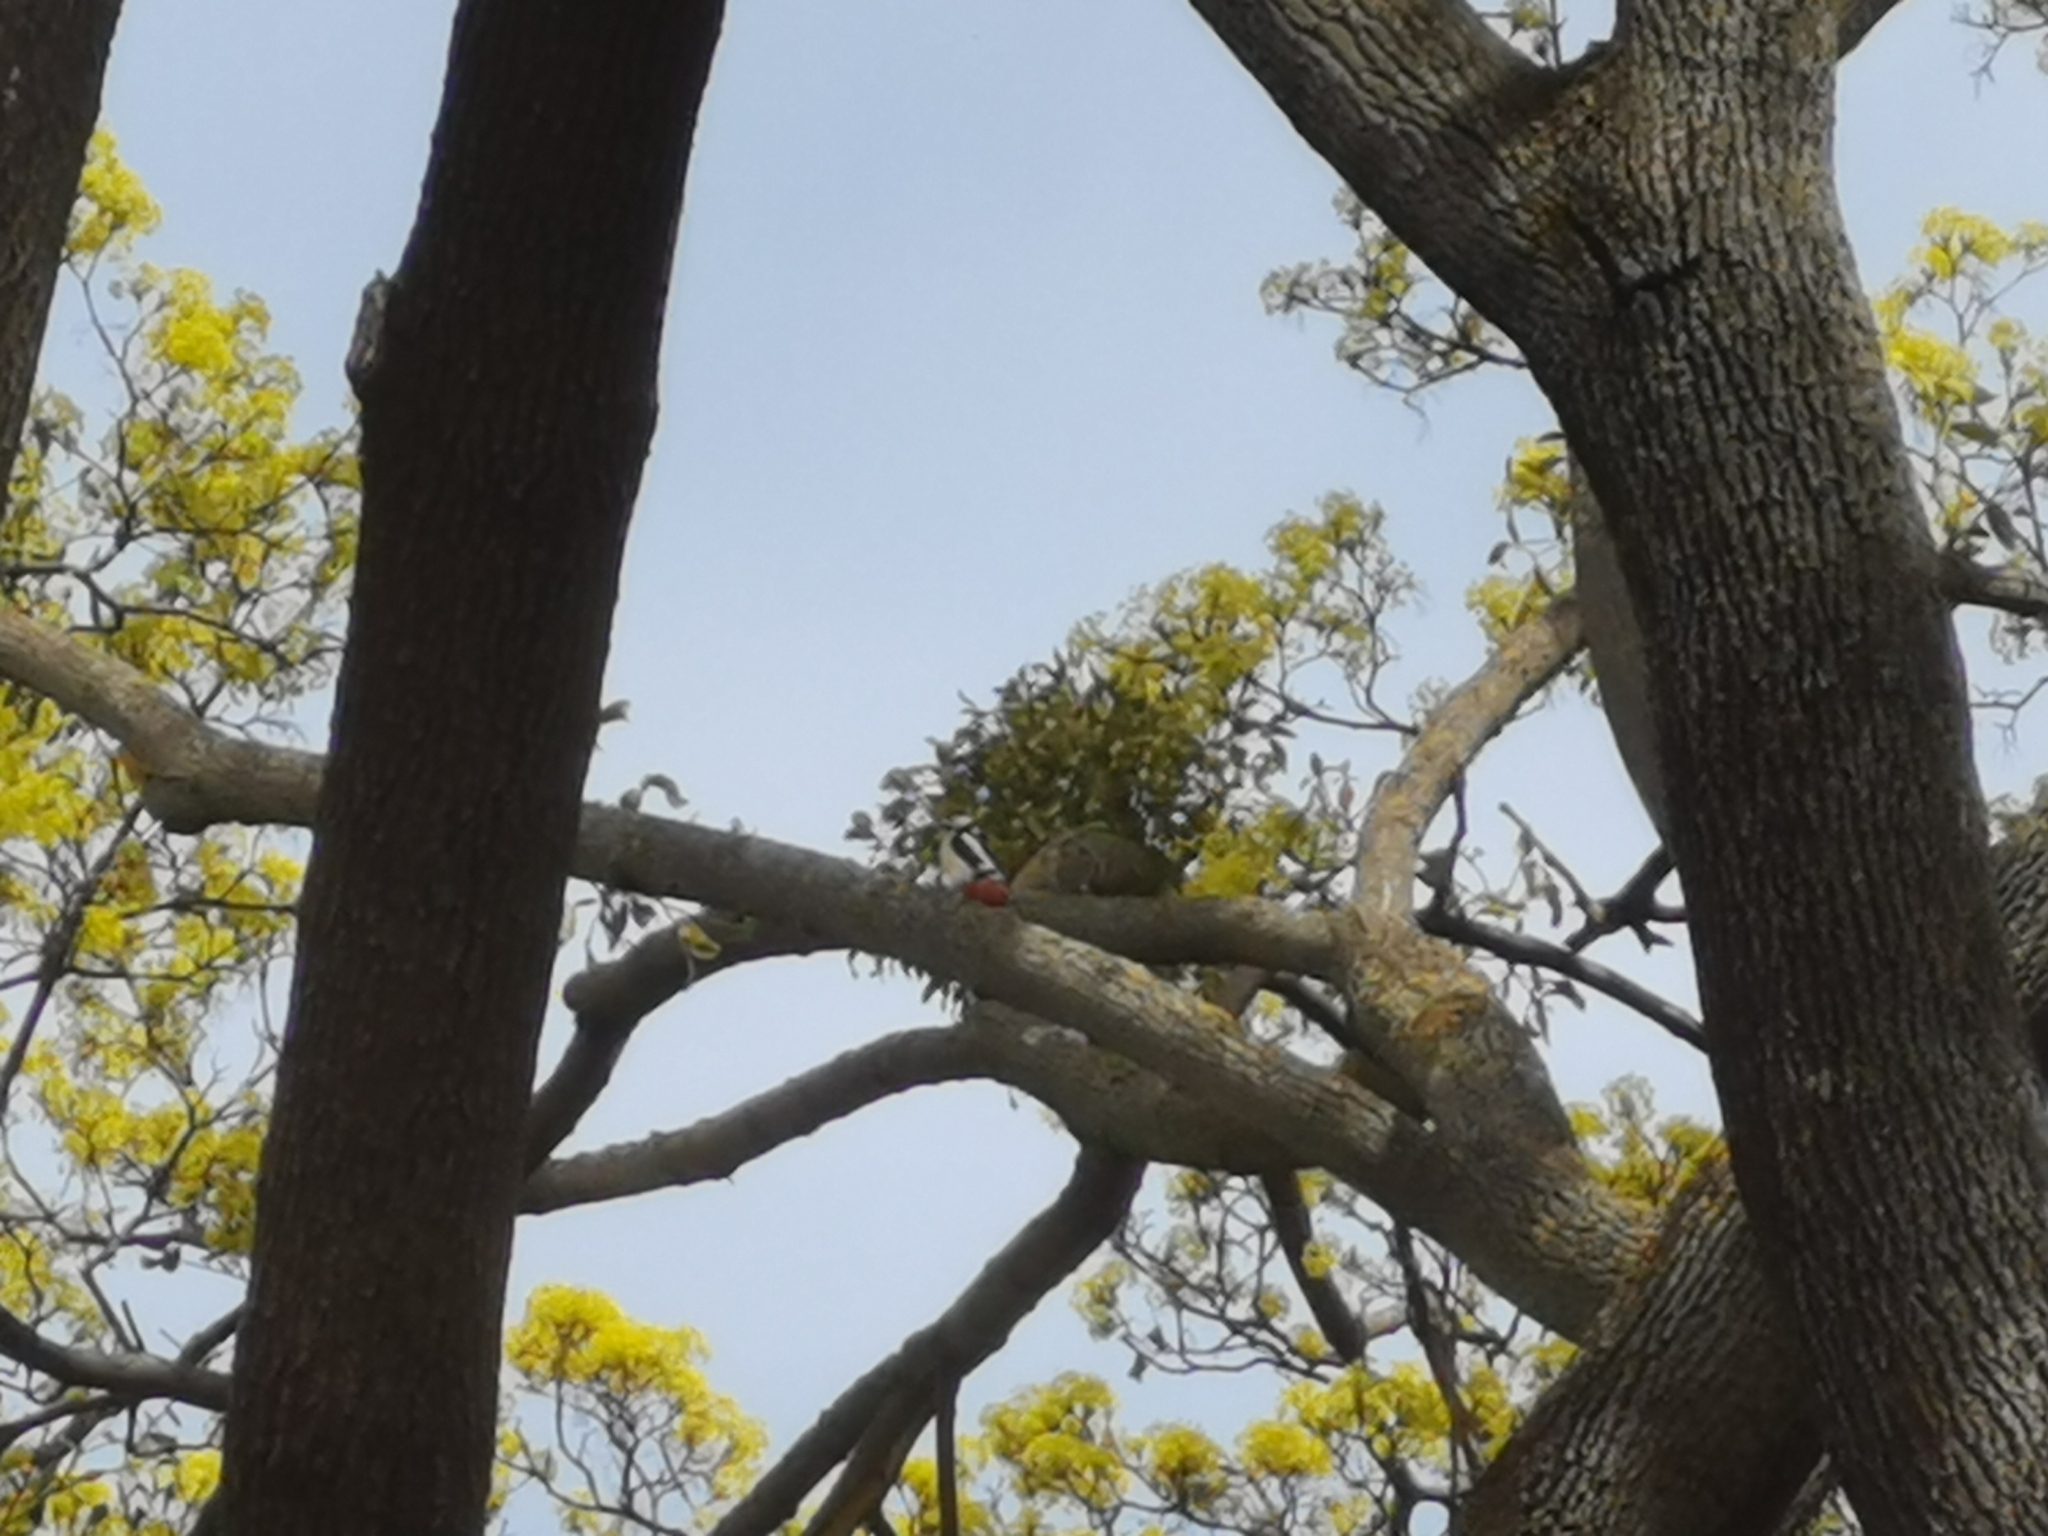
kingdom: Animalia
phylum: Chordata
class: Aves
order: Piciformes
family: Picidae
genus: Dendrocopos
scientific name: Dendrocopos major
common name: Great spotted woodpecker
